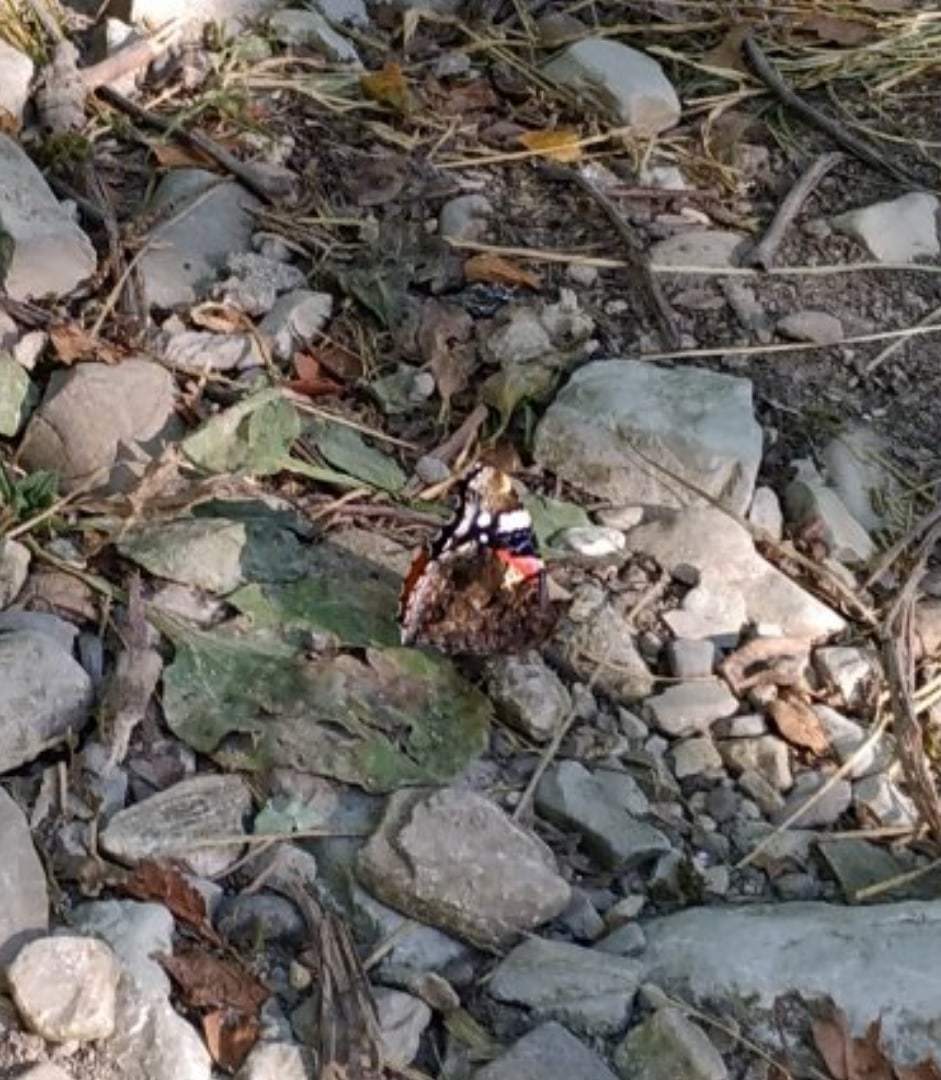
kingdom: Animalia
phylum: Arthropoda
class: Insecta
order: Lepidoptera
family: Nymphalidae
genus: Vanessa
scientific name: Vanessa atalanta
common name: Red admiral
